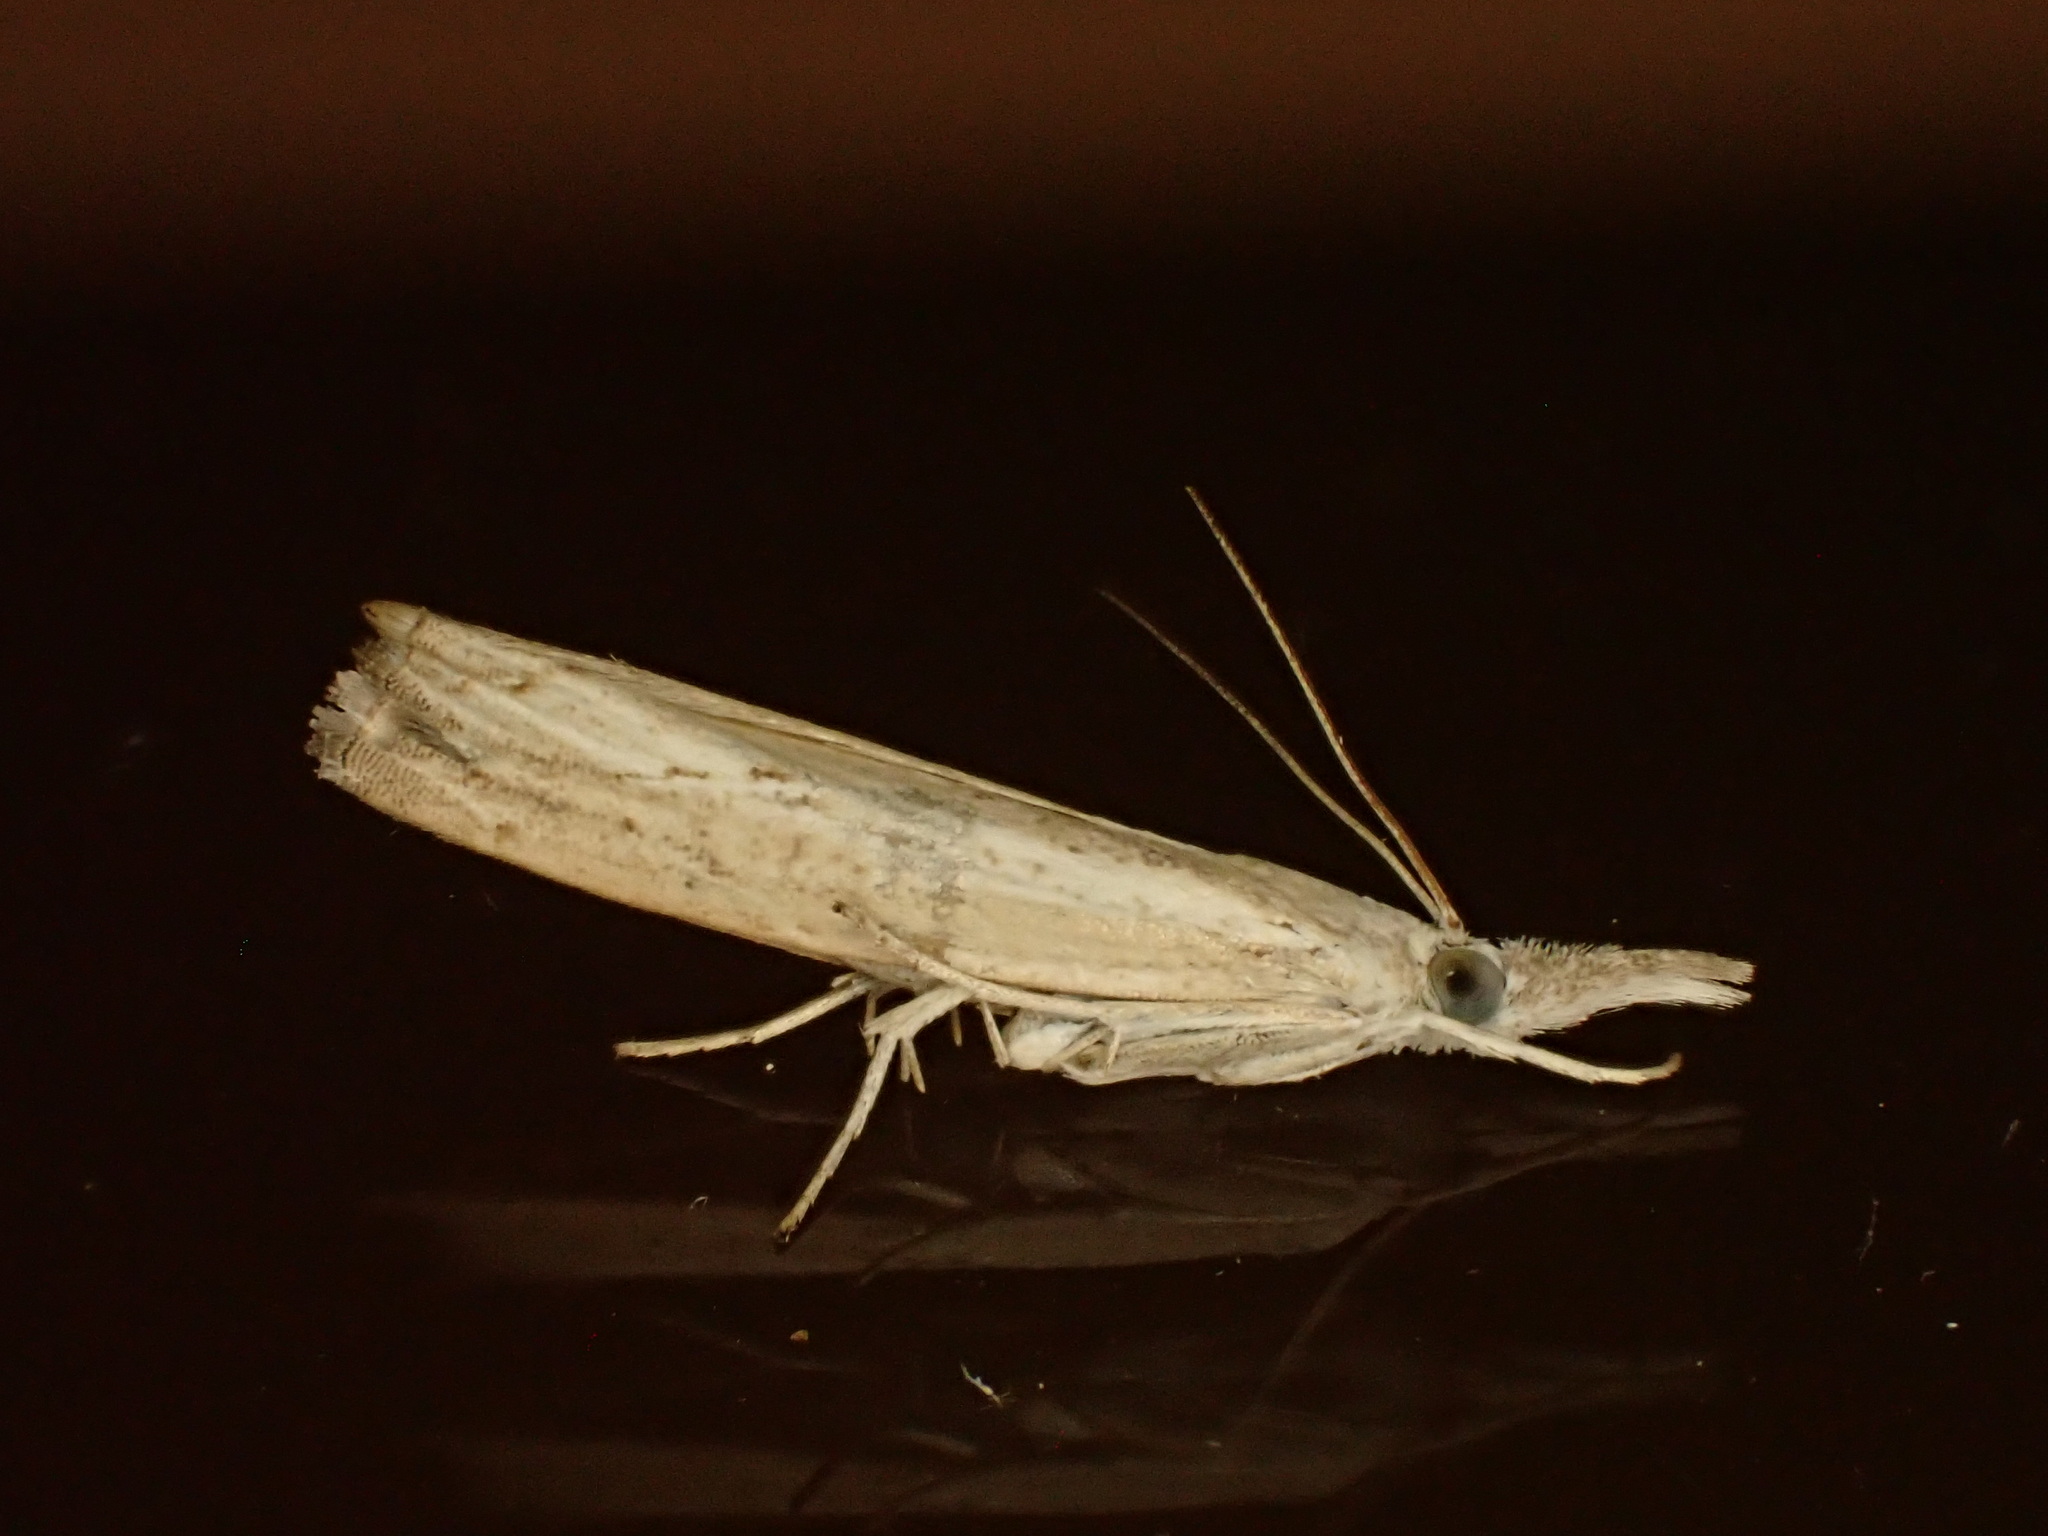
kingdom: Animalia
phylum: Arthropoda
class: Insecta
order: Lepidoptera
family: Crambidae
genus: Culladia
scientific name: Culladia cuneiferellus
